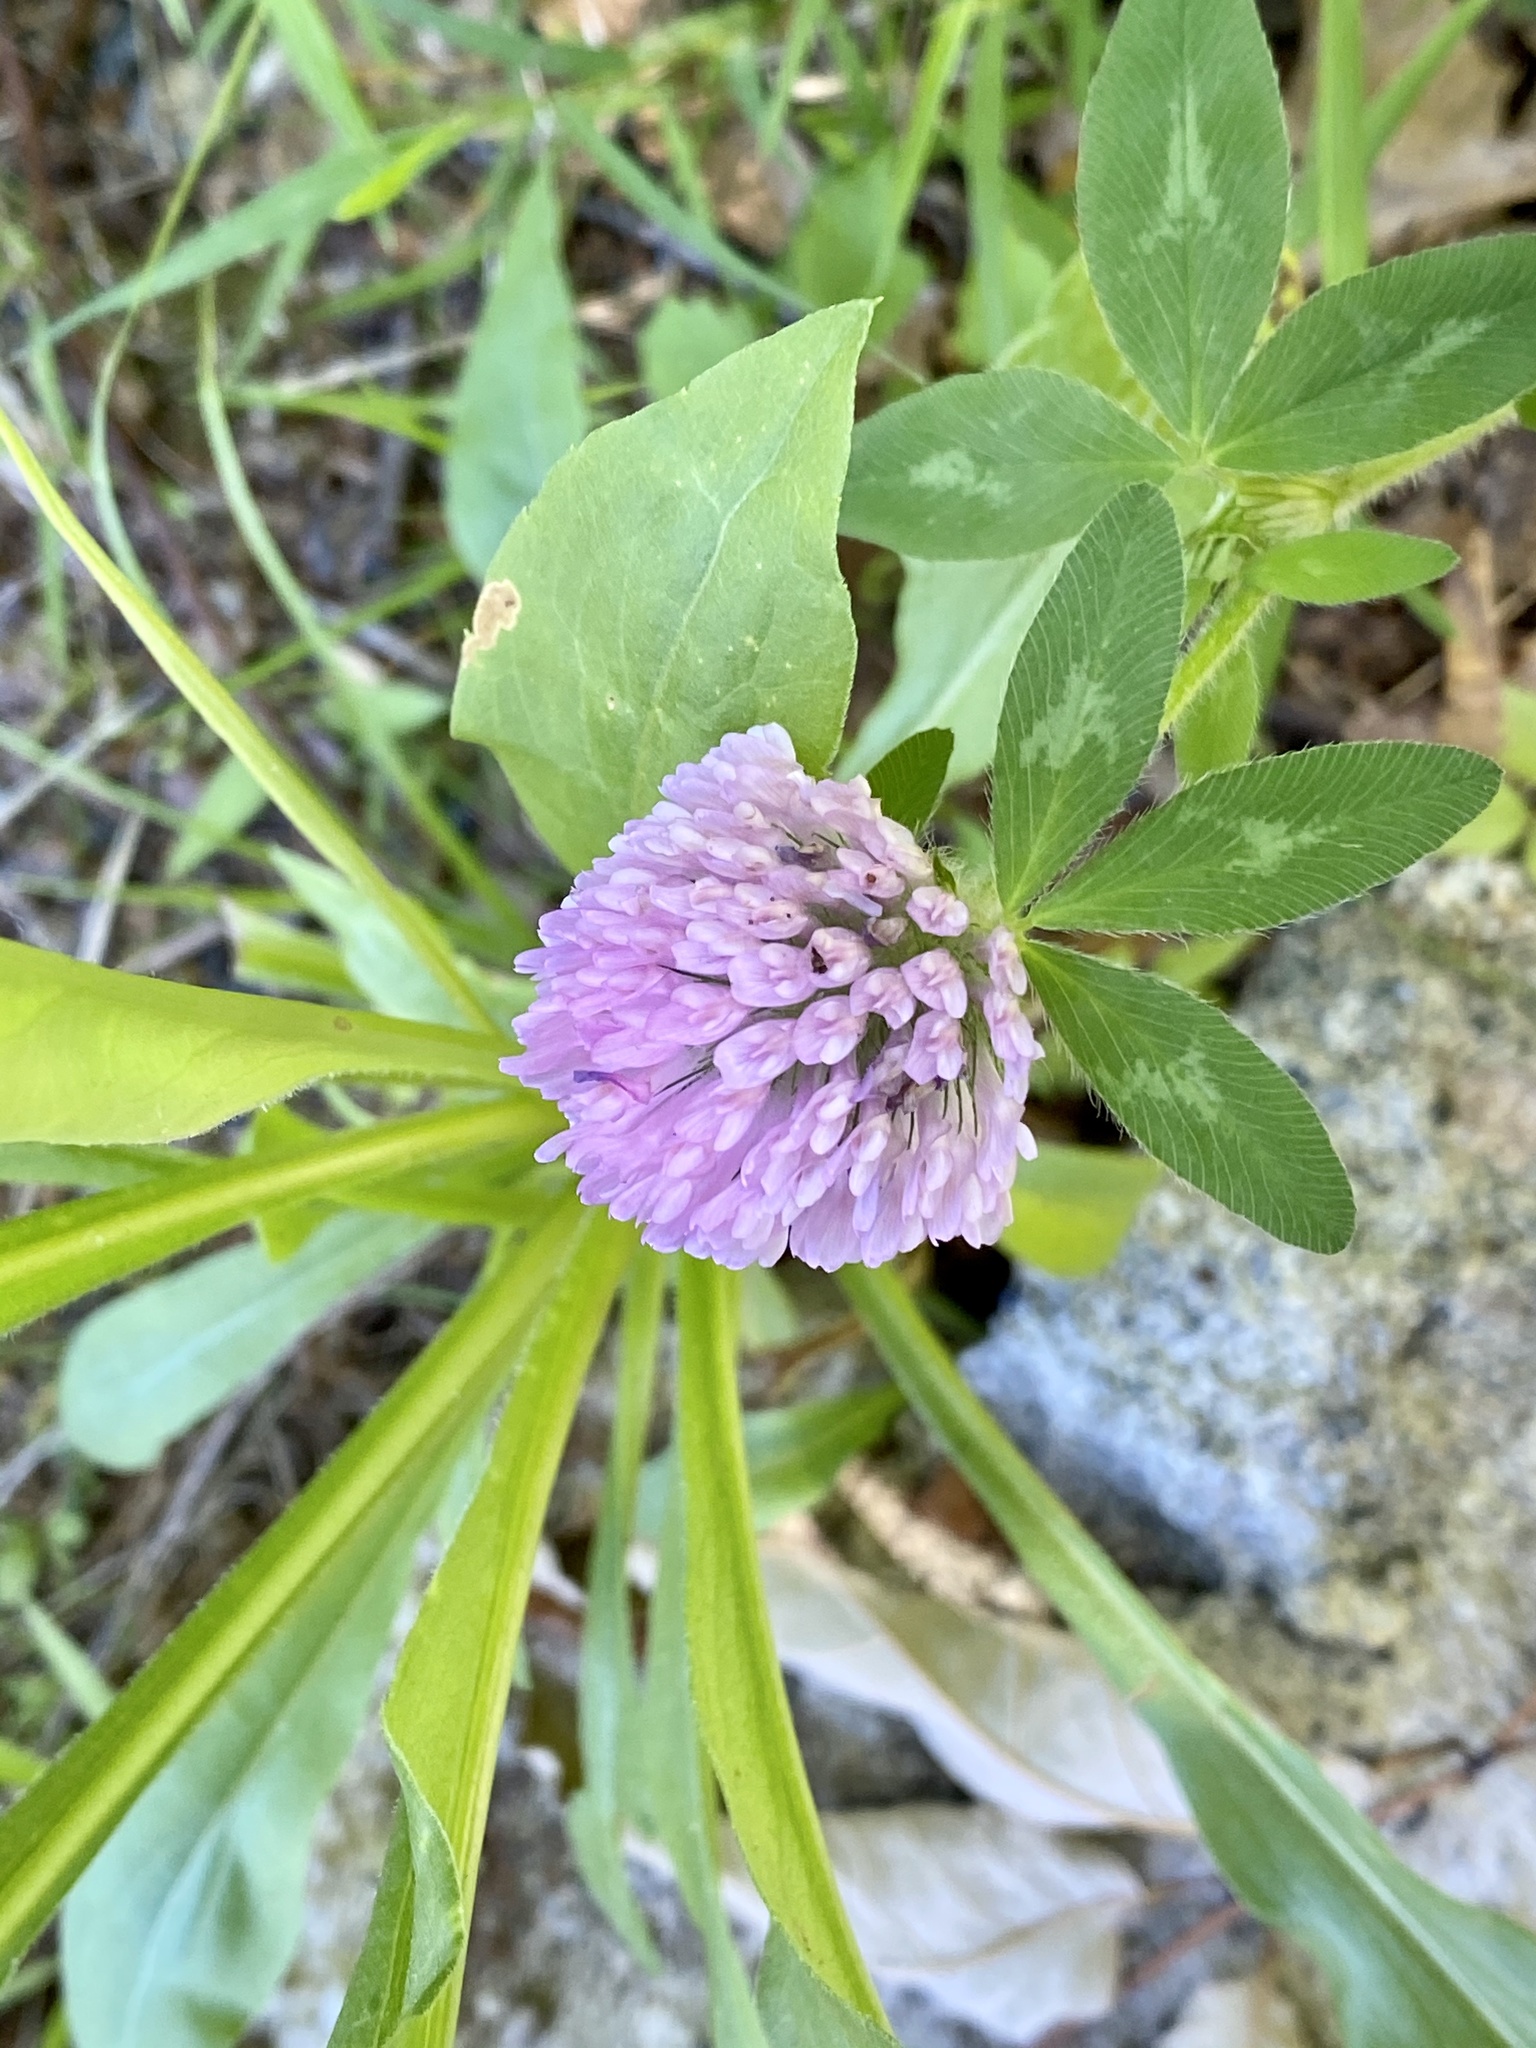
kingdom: Plantae
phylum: Tracheophyta
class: Magnoliopsida
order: Fabales
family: Fabaceae
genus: Trifolium
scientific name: Trifolium pratense
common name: Red clover
